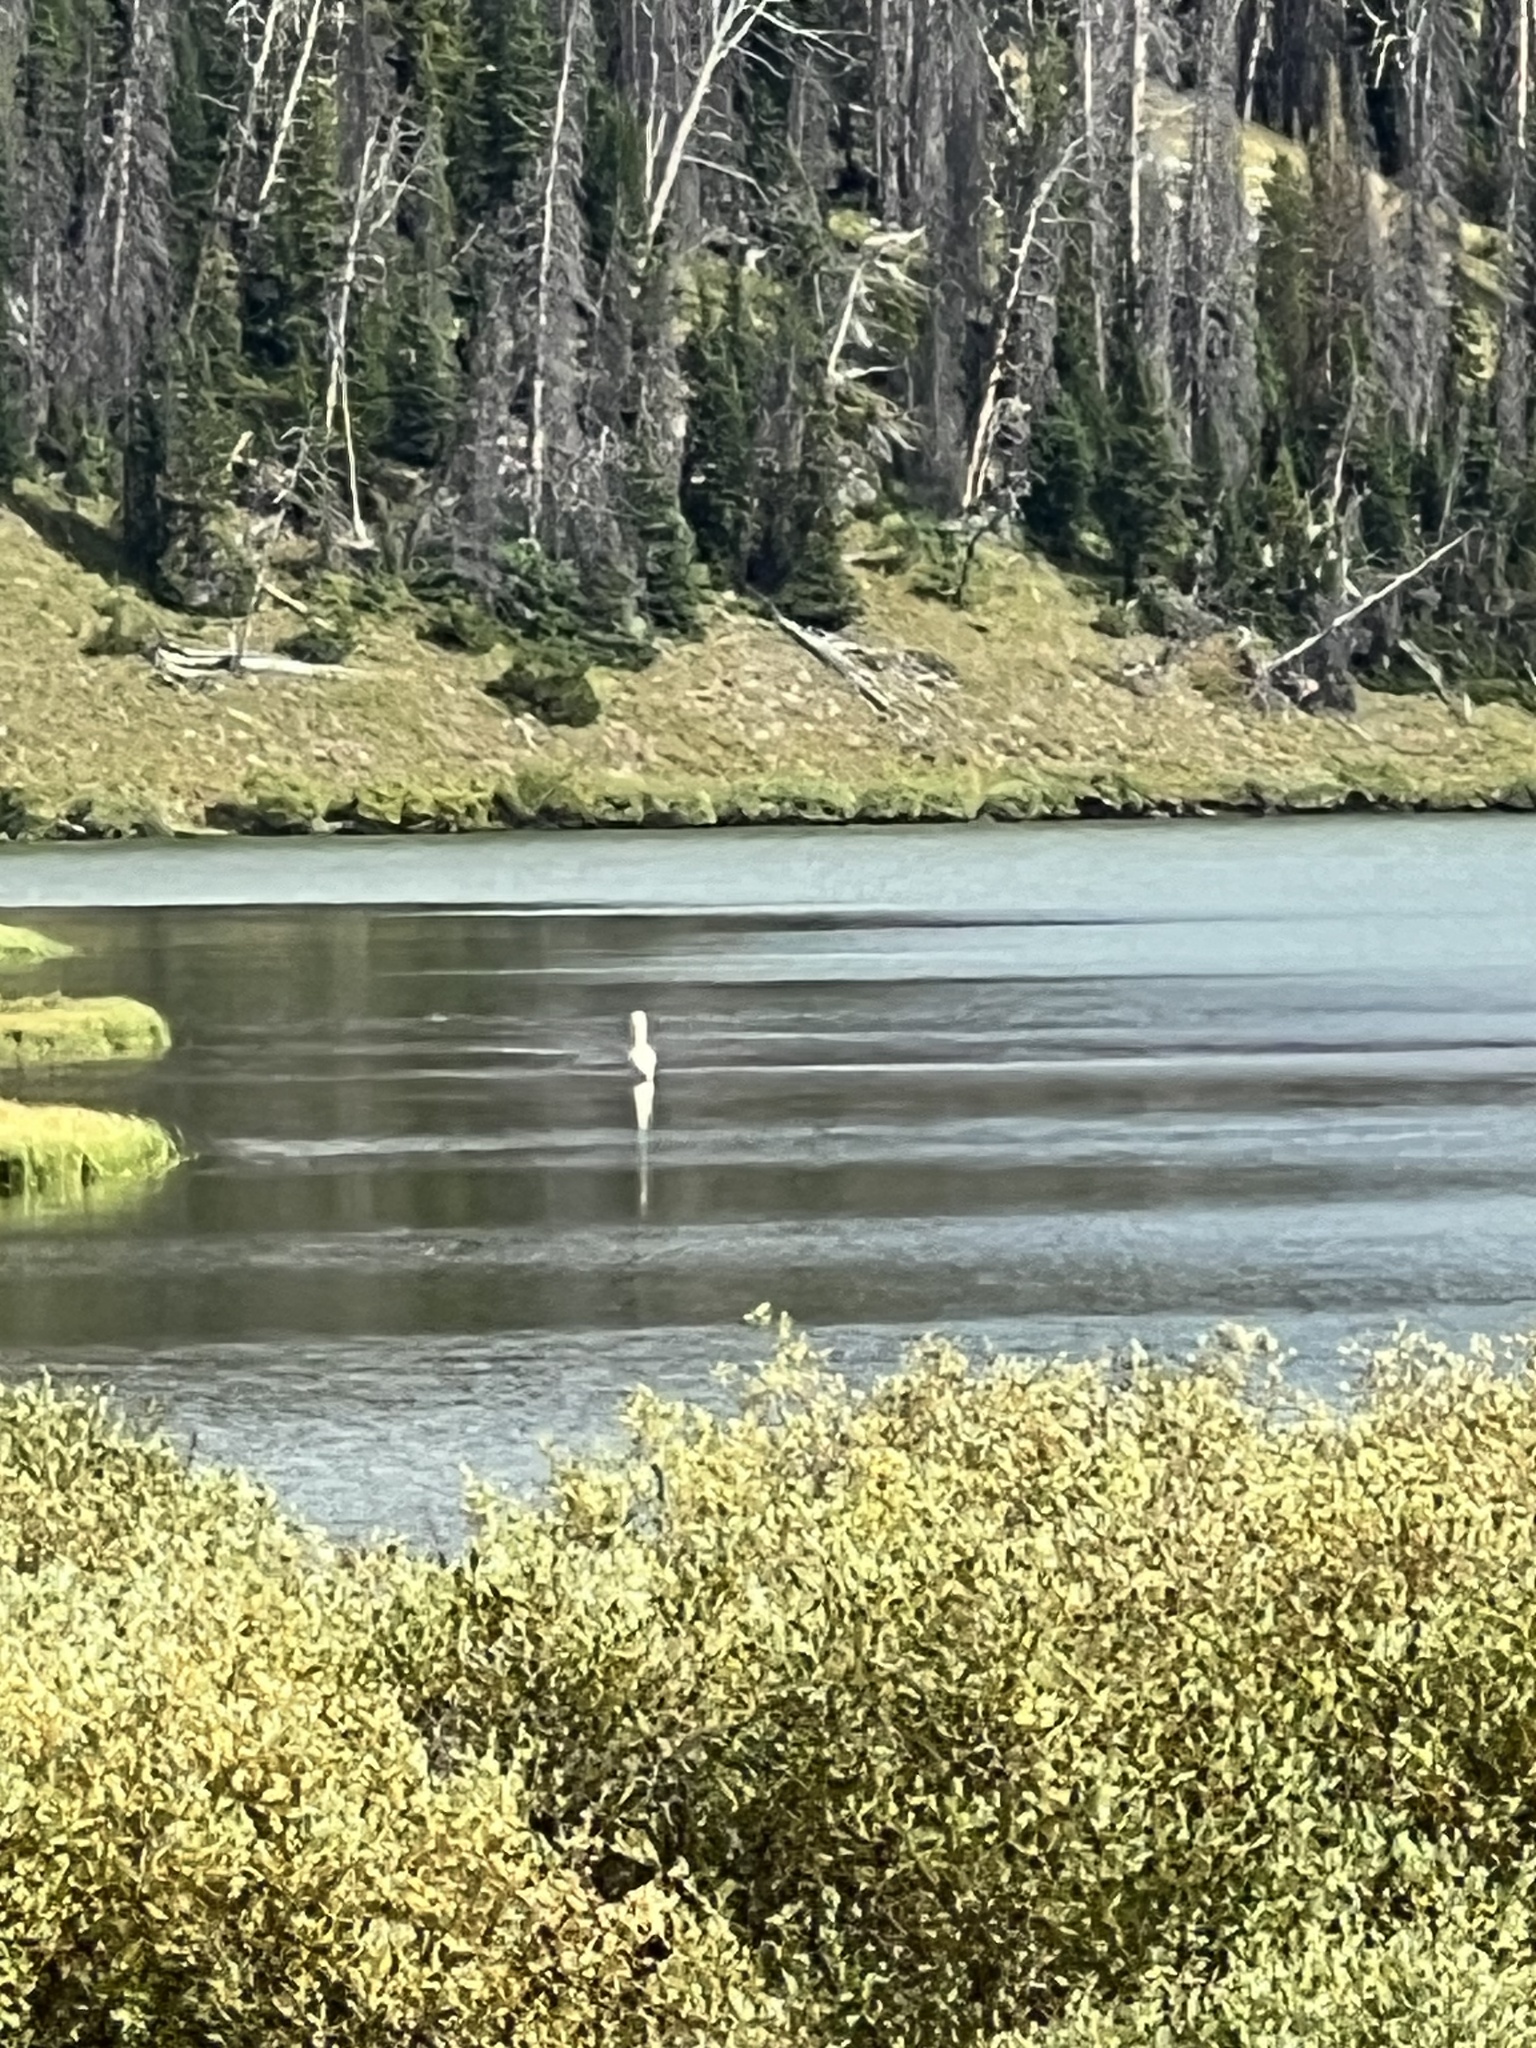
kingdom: Animalia
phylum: Chordata
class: Aves
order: Pelecaniformes
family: Pelecanidae
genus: Pelecanus
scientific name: Pelecanus erythrorhynchos
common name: American white pelican
